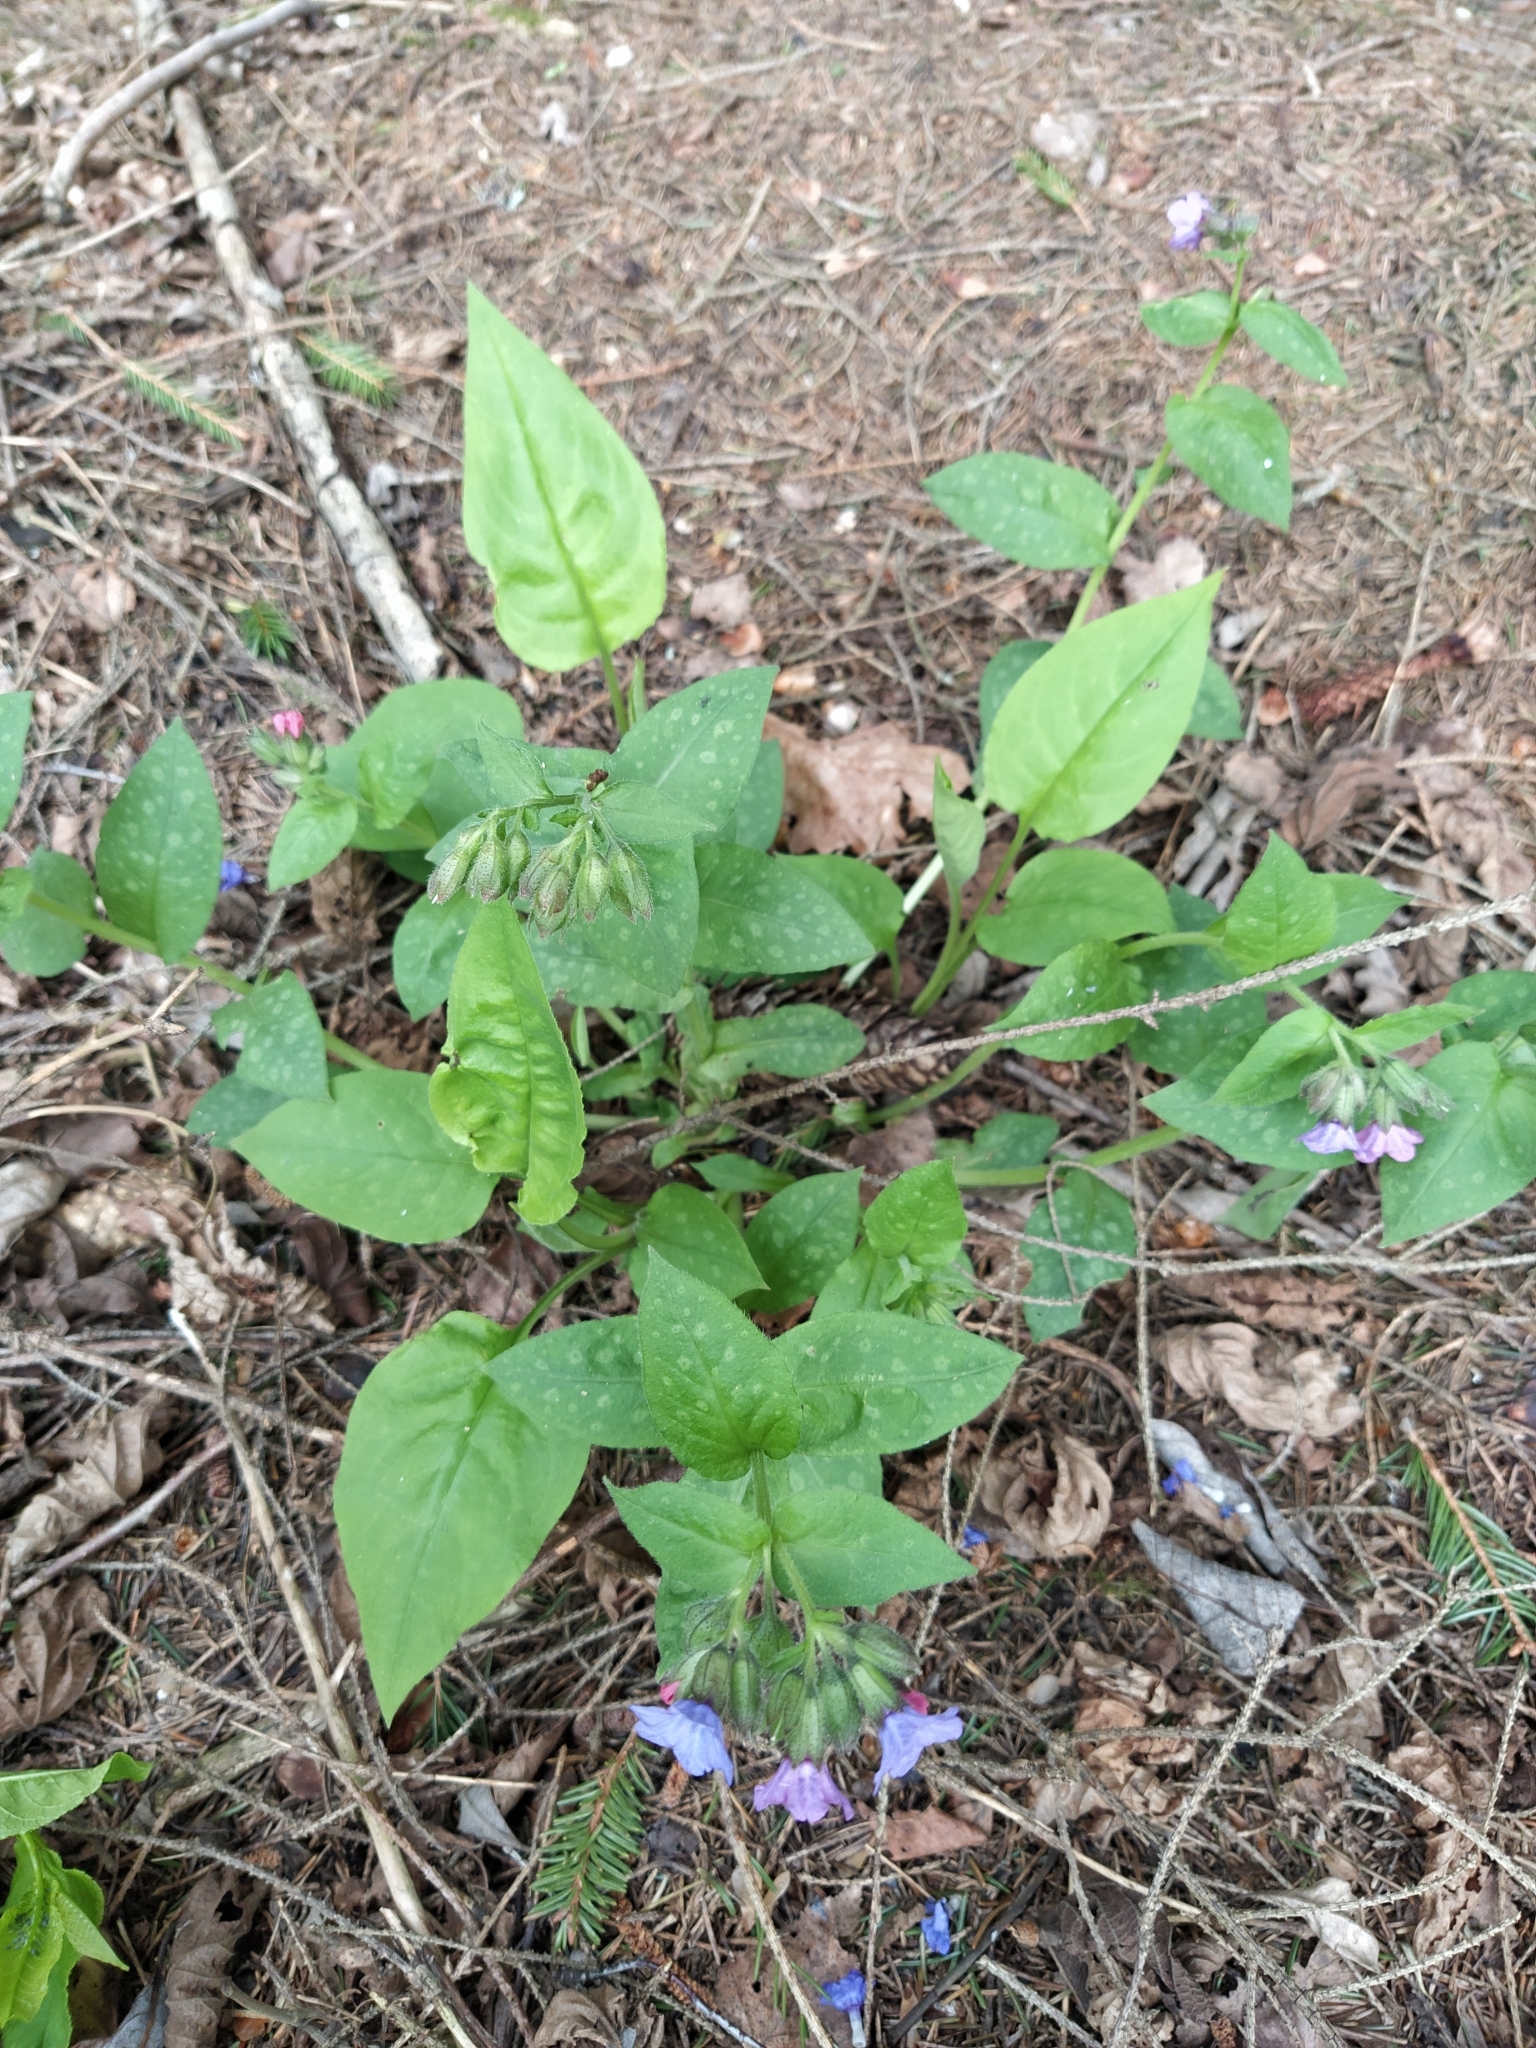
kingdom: Plantae
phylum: Tracheophyta
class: Magnoliopsida
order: Boraginales
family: Boraginaceae
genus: Pulmonaria
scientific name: Pulmonaria obscura
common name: Suffolk lungwort
